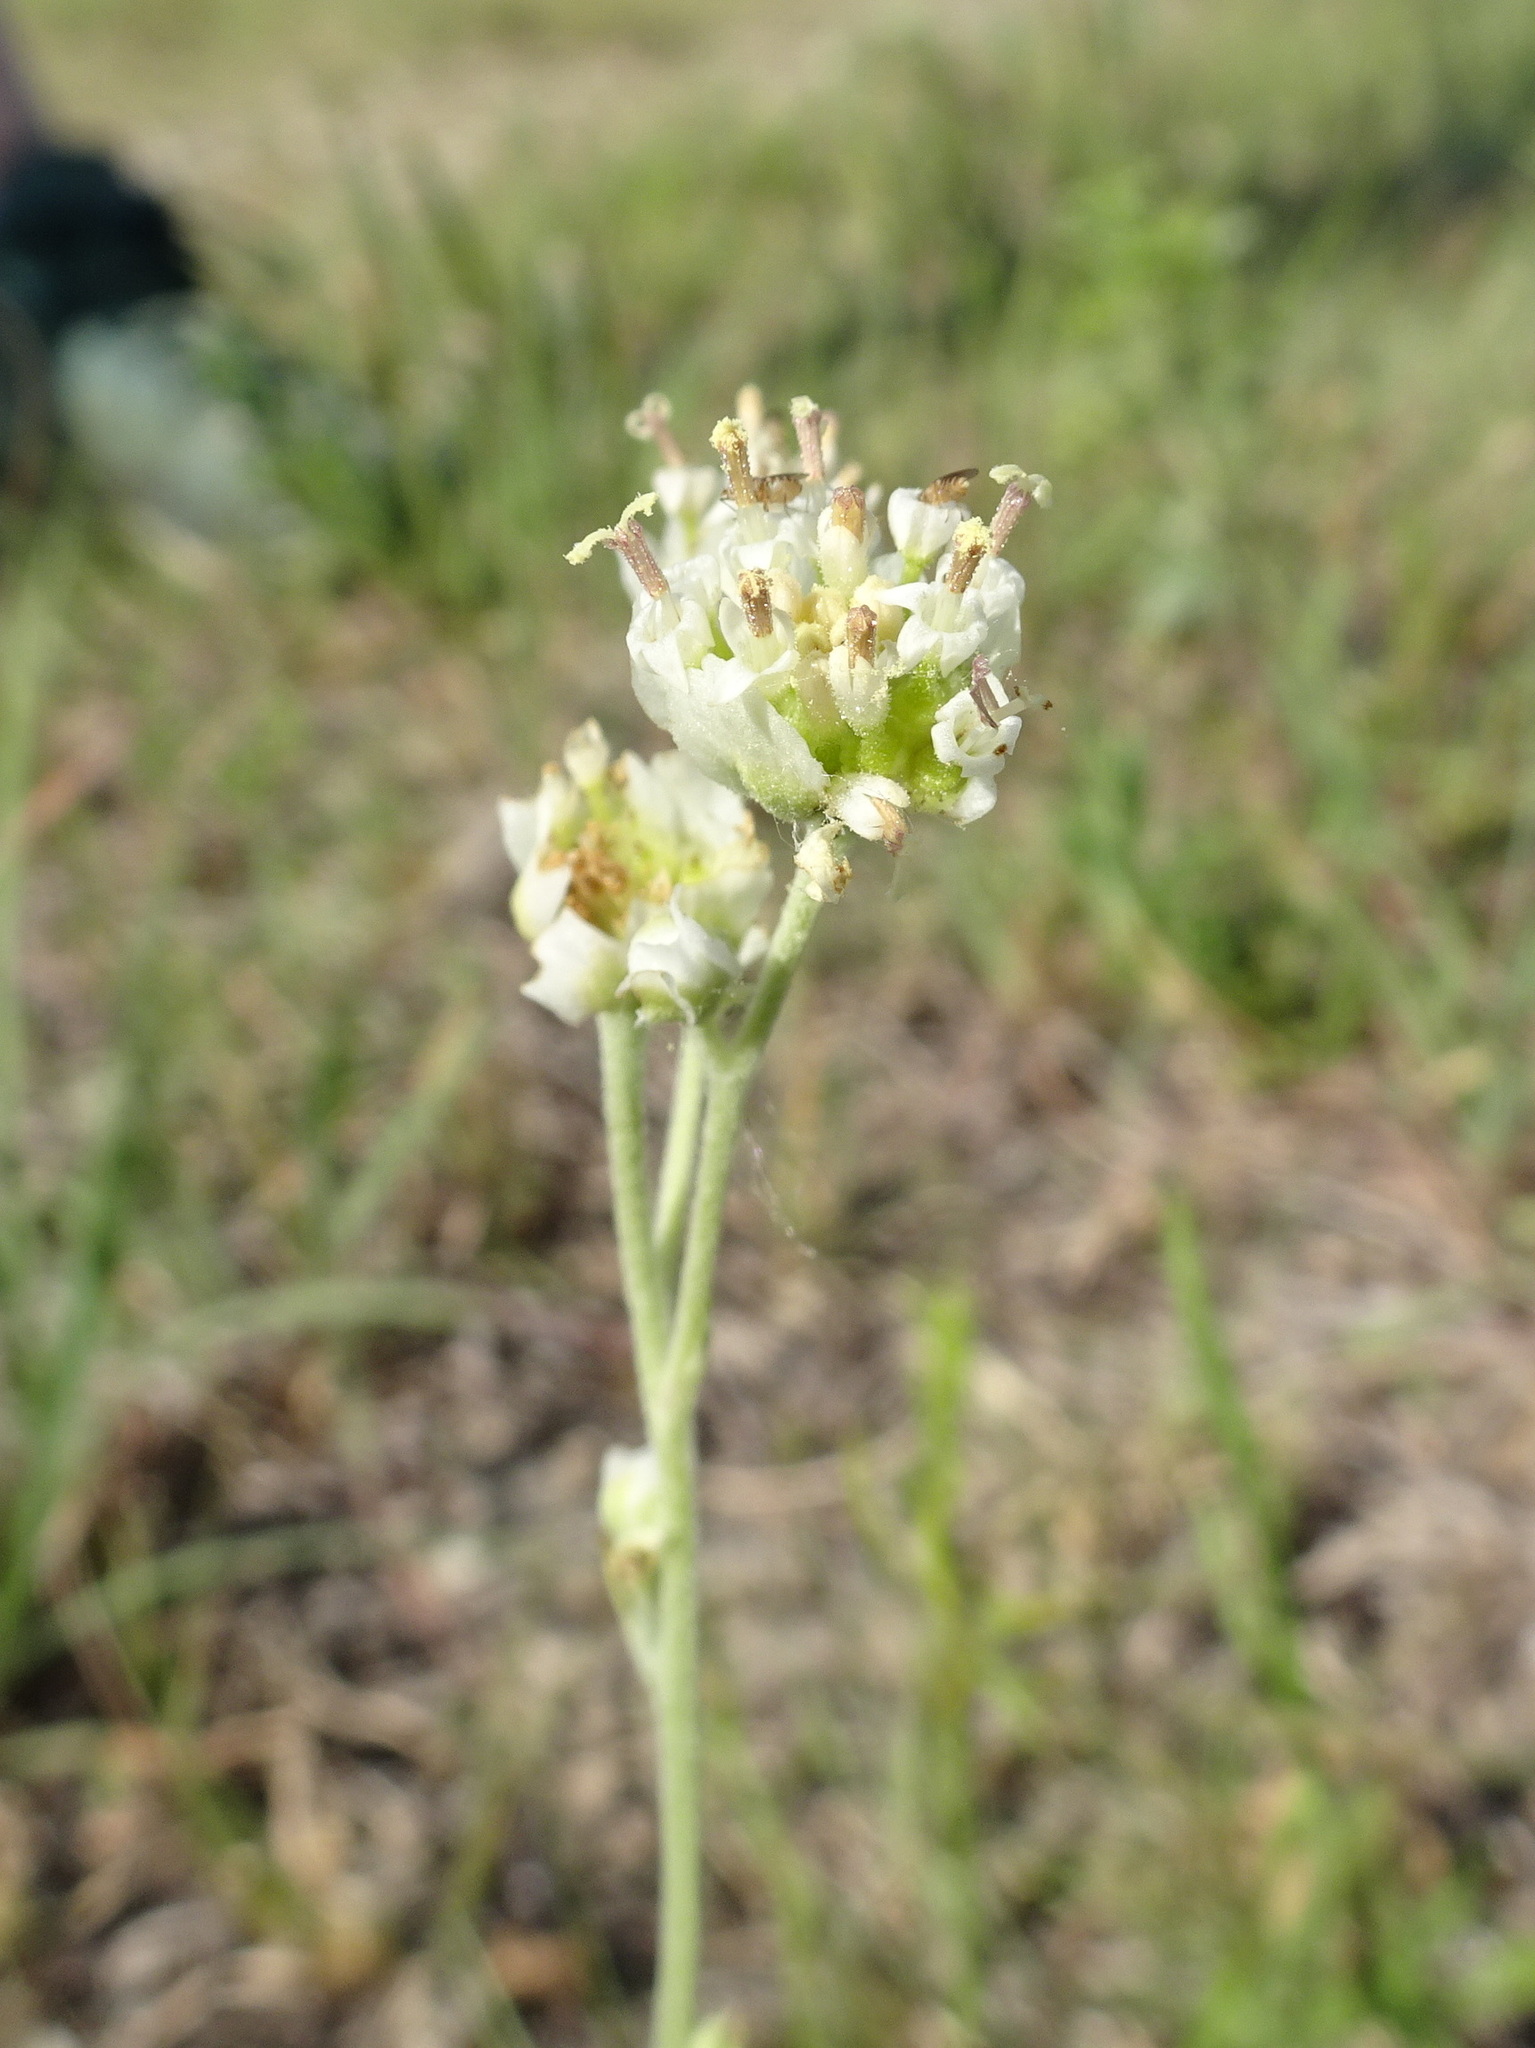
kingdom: Plantae
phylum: Tracheophyta
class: Magnoliopsida
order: Asterales
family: Asteraceae
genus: Hymenopappus
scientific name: Hymenopappus scabiosaeus
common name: Carolina woollywhite
